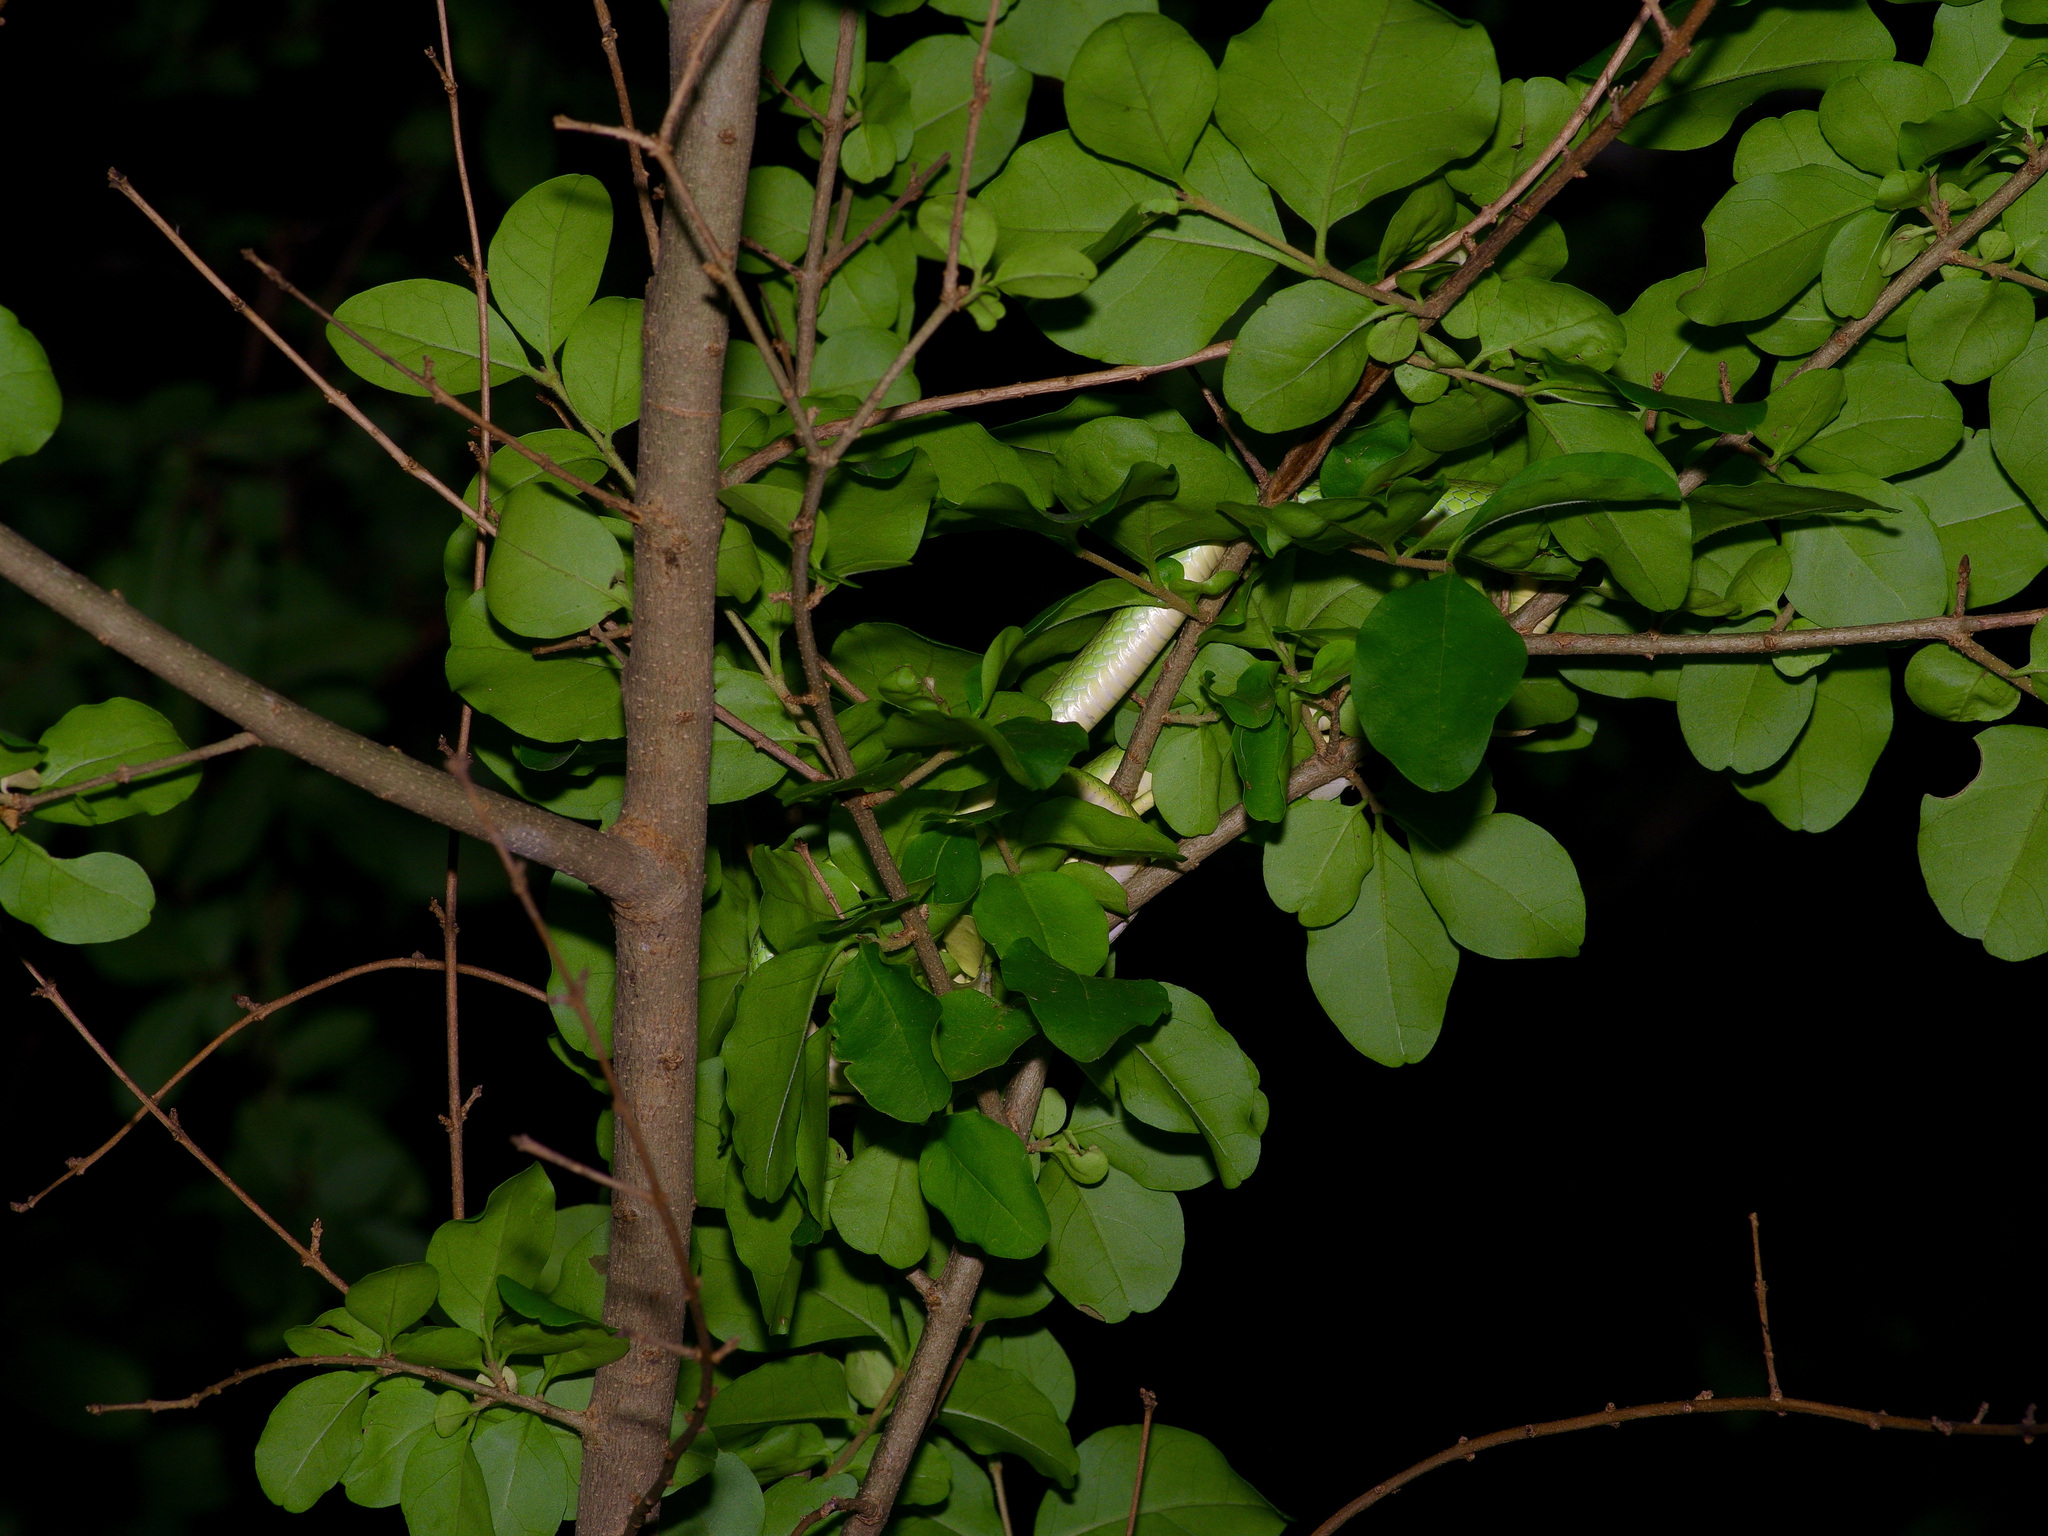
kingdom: Animalia
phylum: Chordata
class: Squamata
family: Colubridae
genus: Opheodrys
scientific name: Opheodrys aestivus
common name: Rough greensnake
